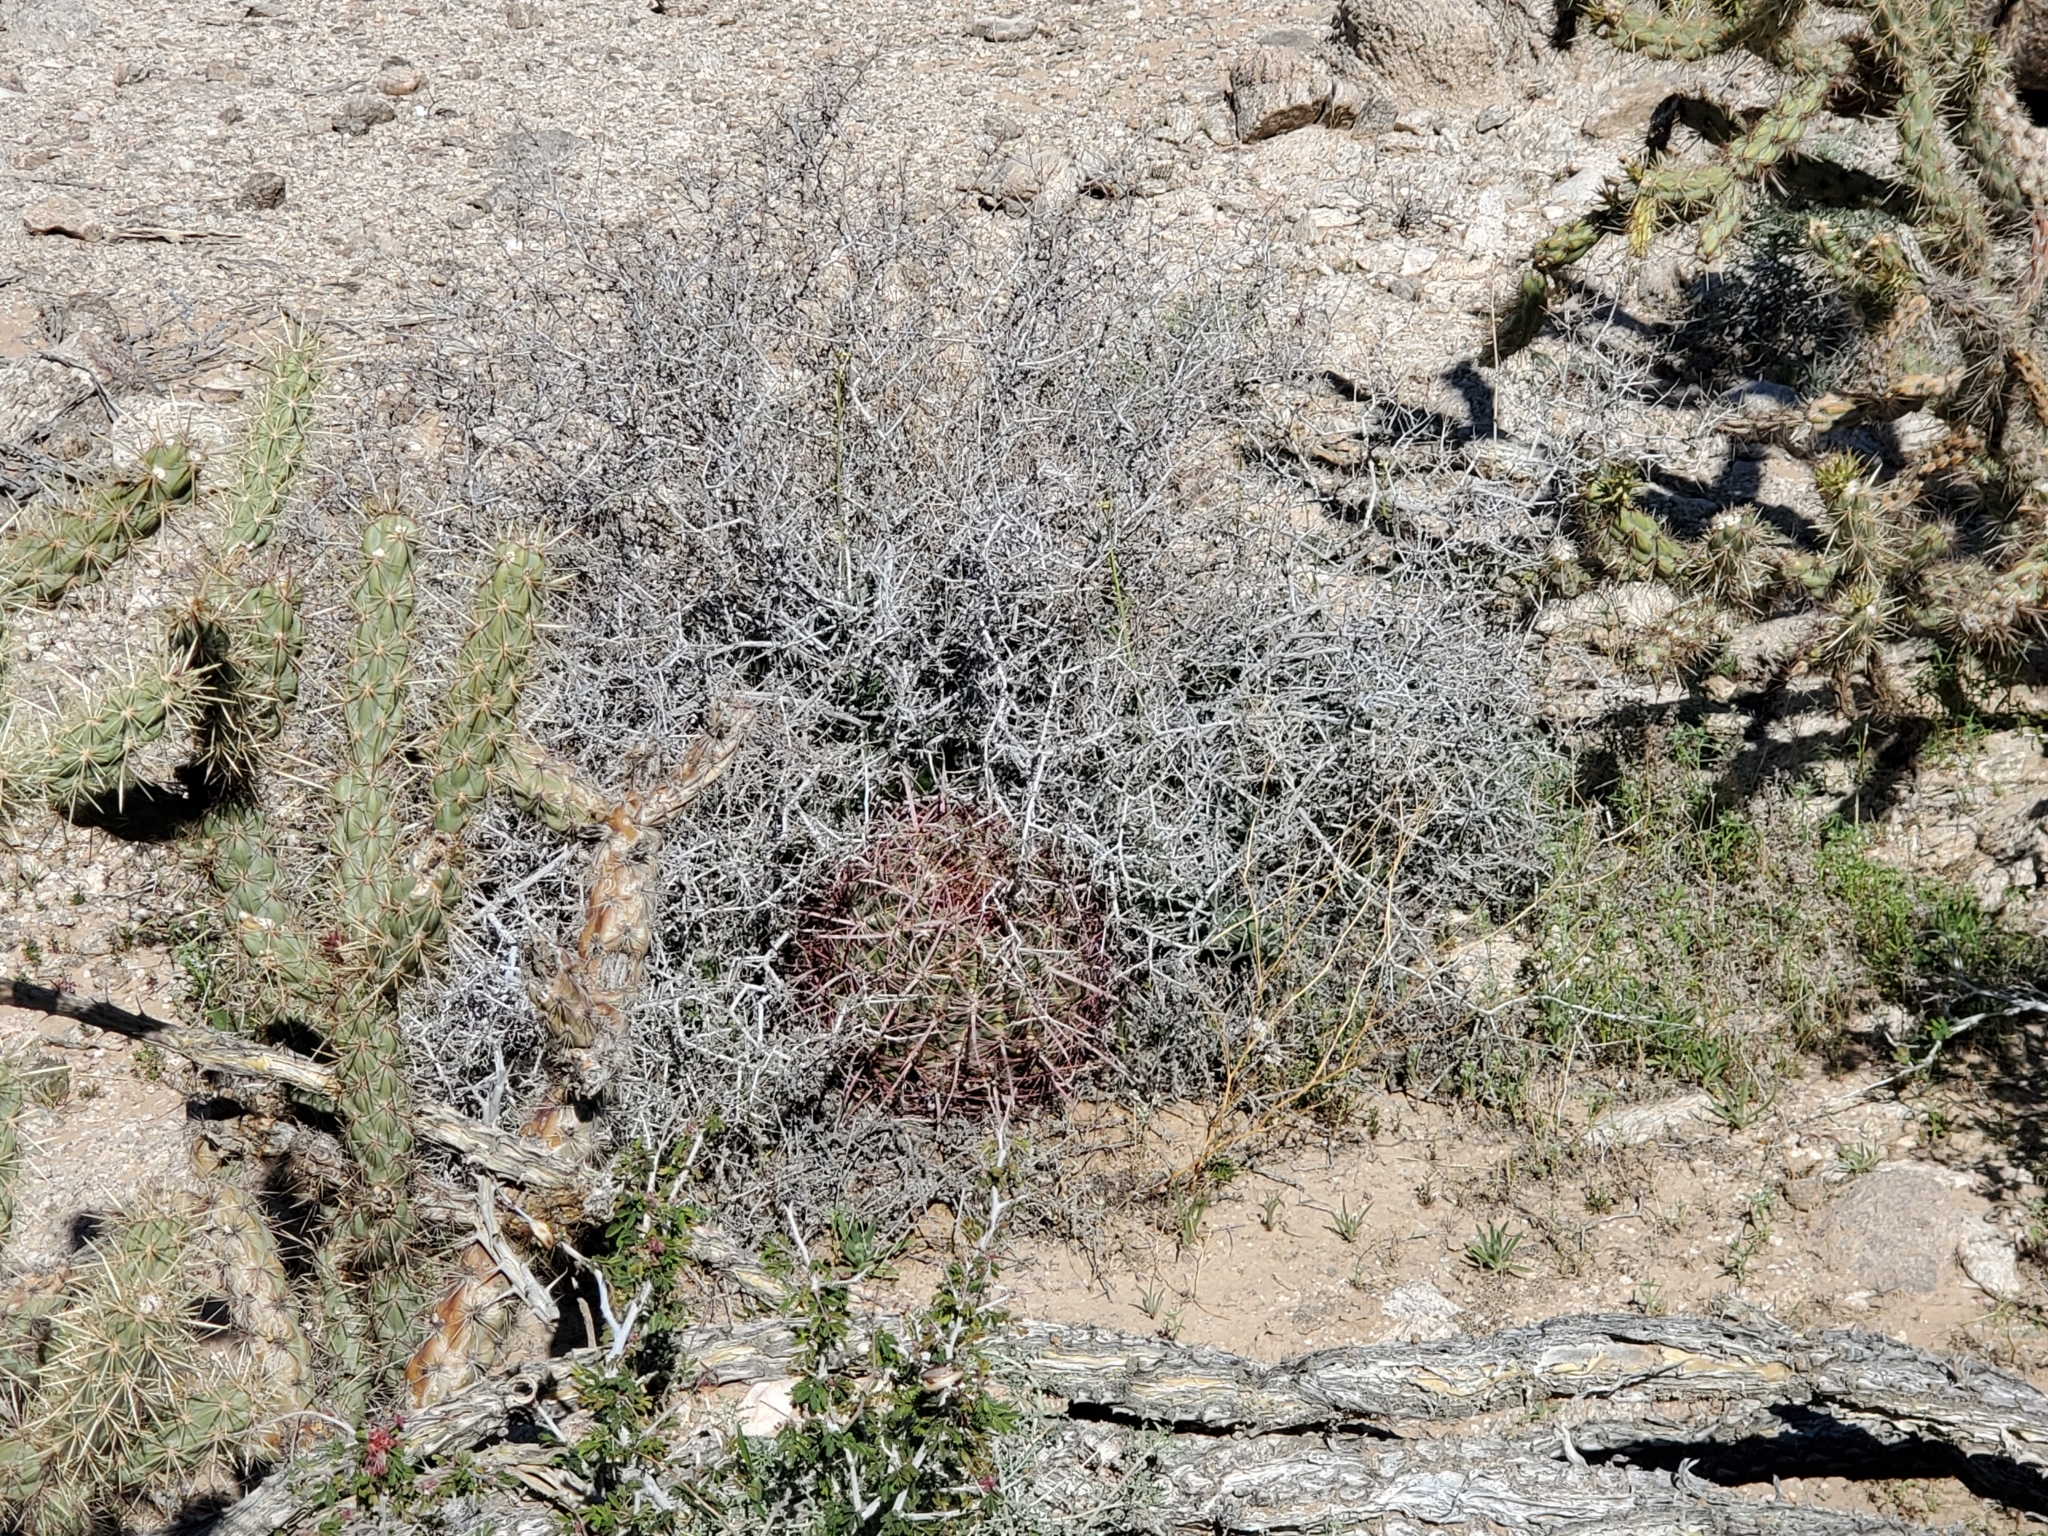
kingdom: Plantae
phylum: Tracheophyta
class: Magnoliopsida
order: Caryophyllales
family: Cactaceae
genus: Ferocactus
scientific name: Ferocactus cylindraceus
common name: California barrel cactus
